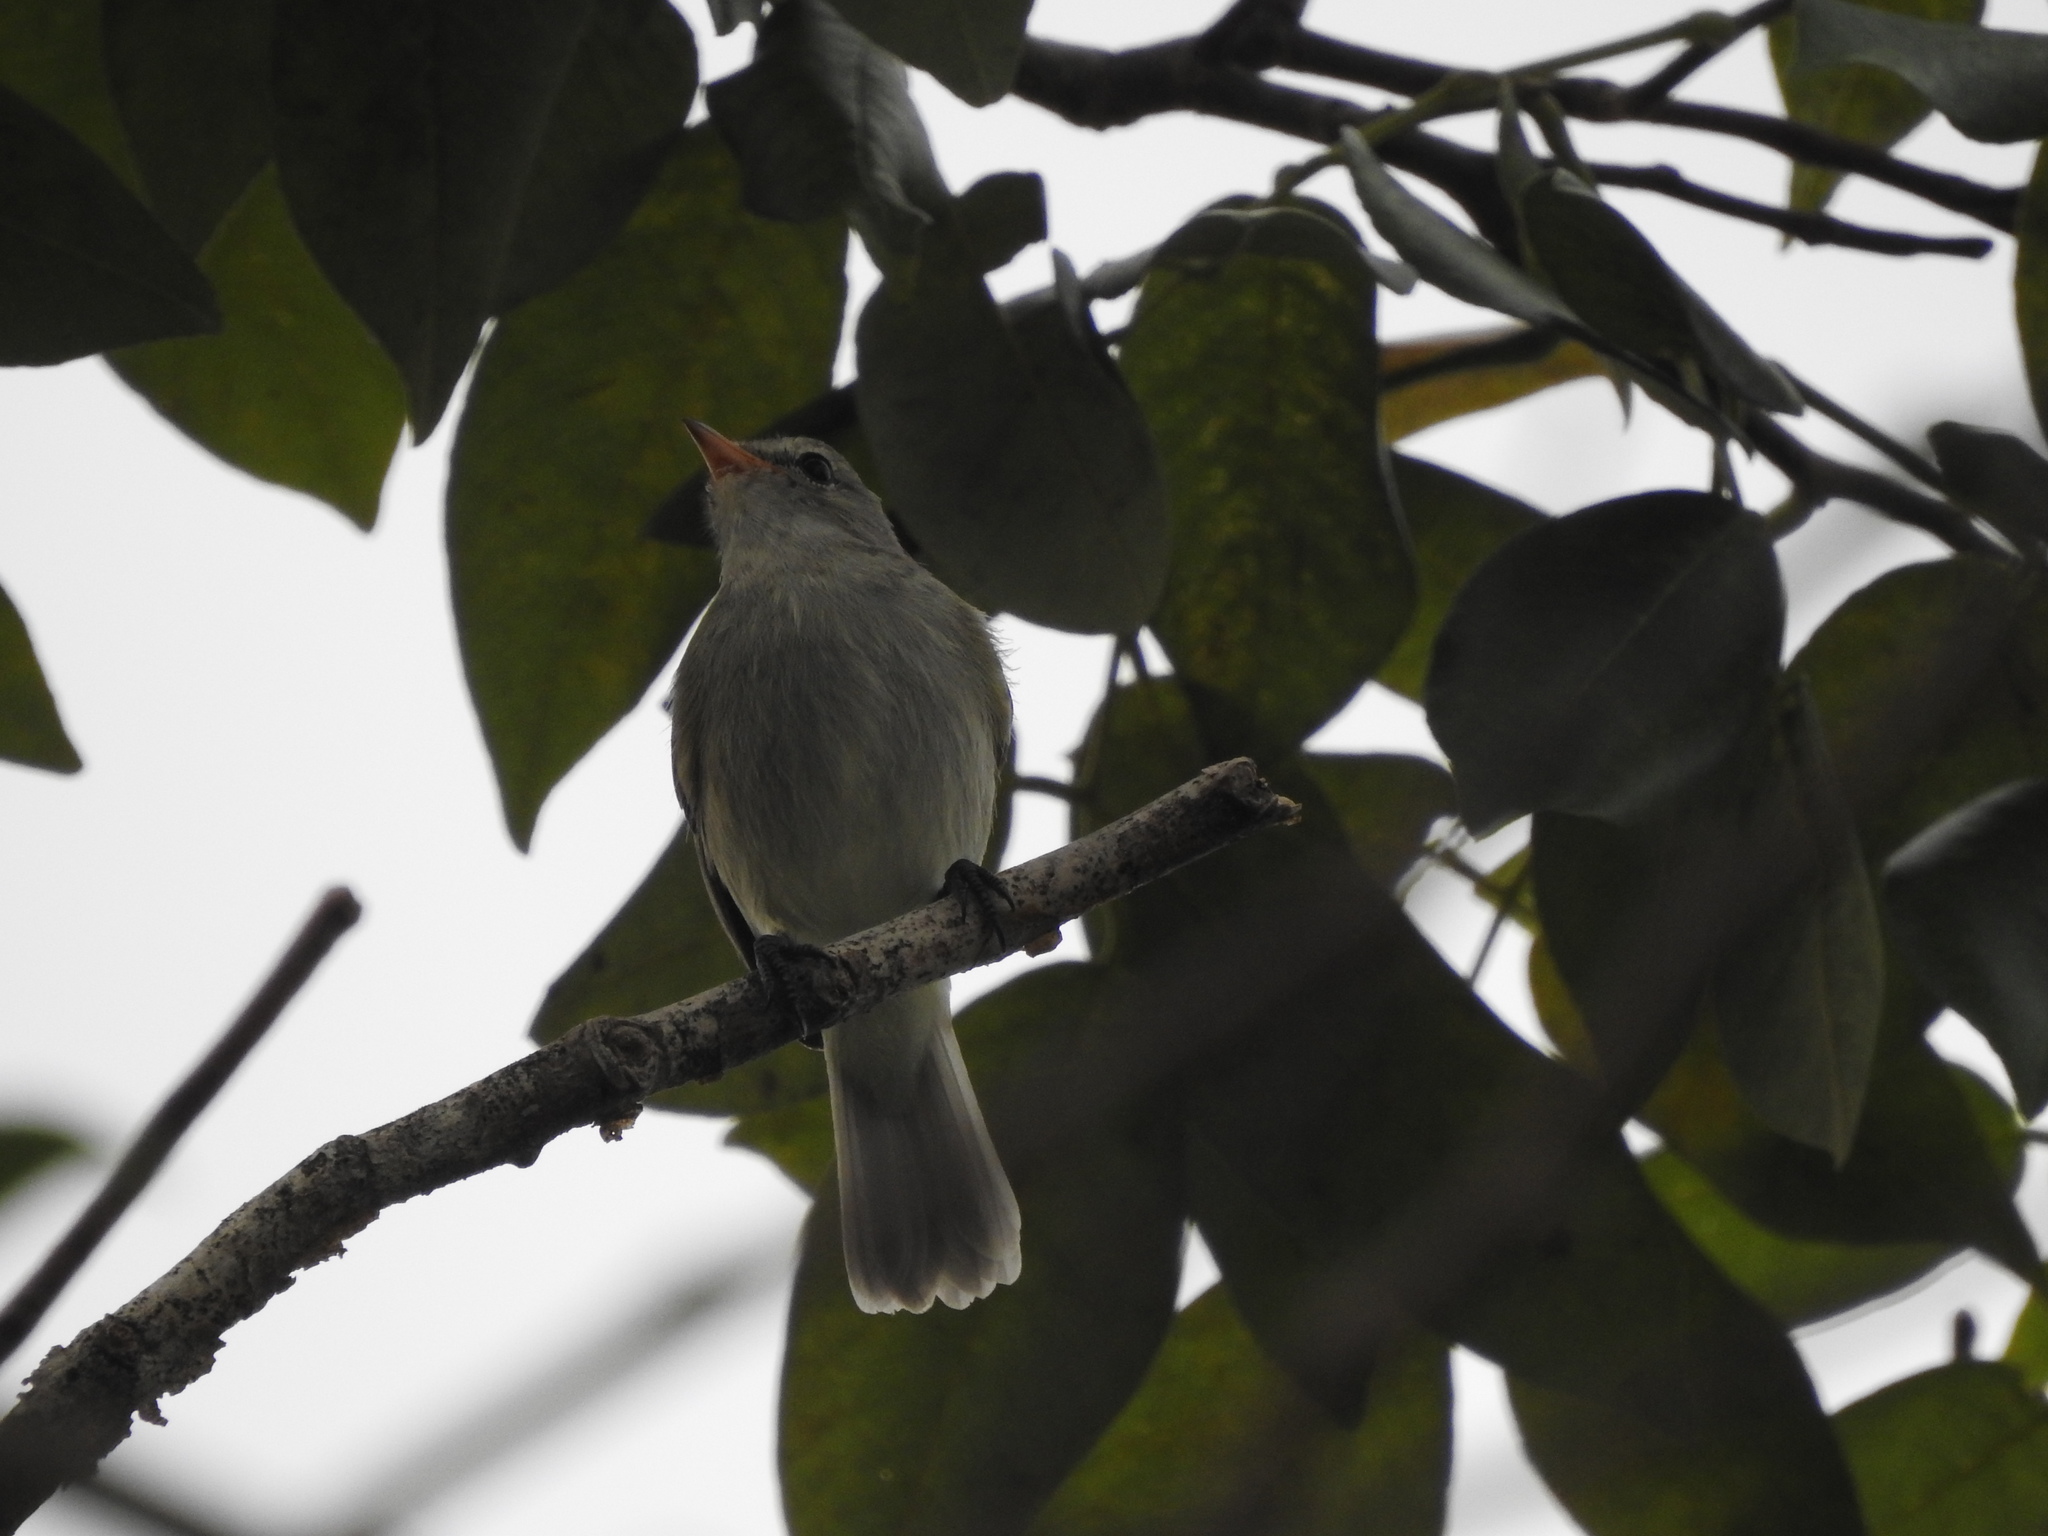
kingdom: Animalia
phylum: Chordata
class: Aves
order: Passeriformes
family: Tyrannidae
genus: Camptostoma
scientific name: Camptostoma imberbe
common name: Northern beardless-tyrannulet
